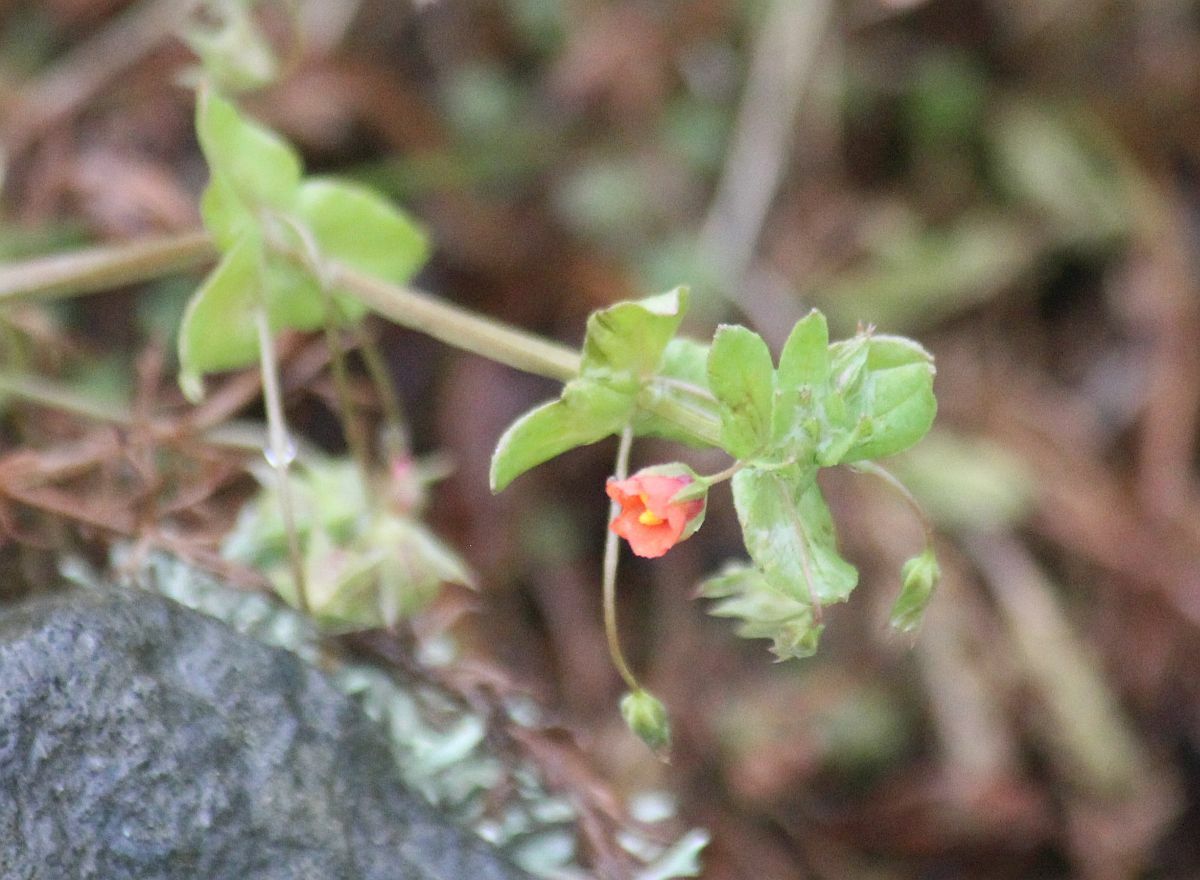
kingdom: Plantae
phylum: Tracheophyta
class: Magnoliopsida
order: Ericales
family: Primulaceae
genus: Lysimachia
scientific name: Lysimachia arvensis
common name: Scarlet pimpernel
